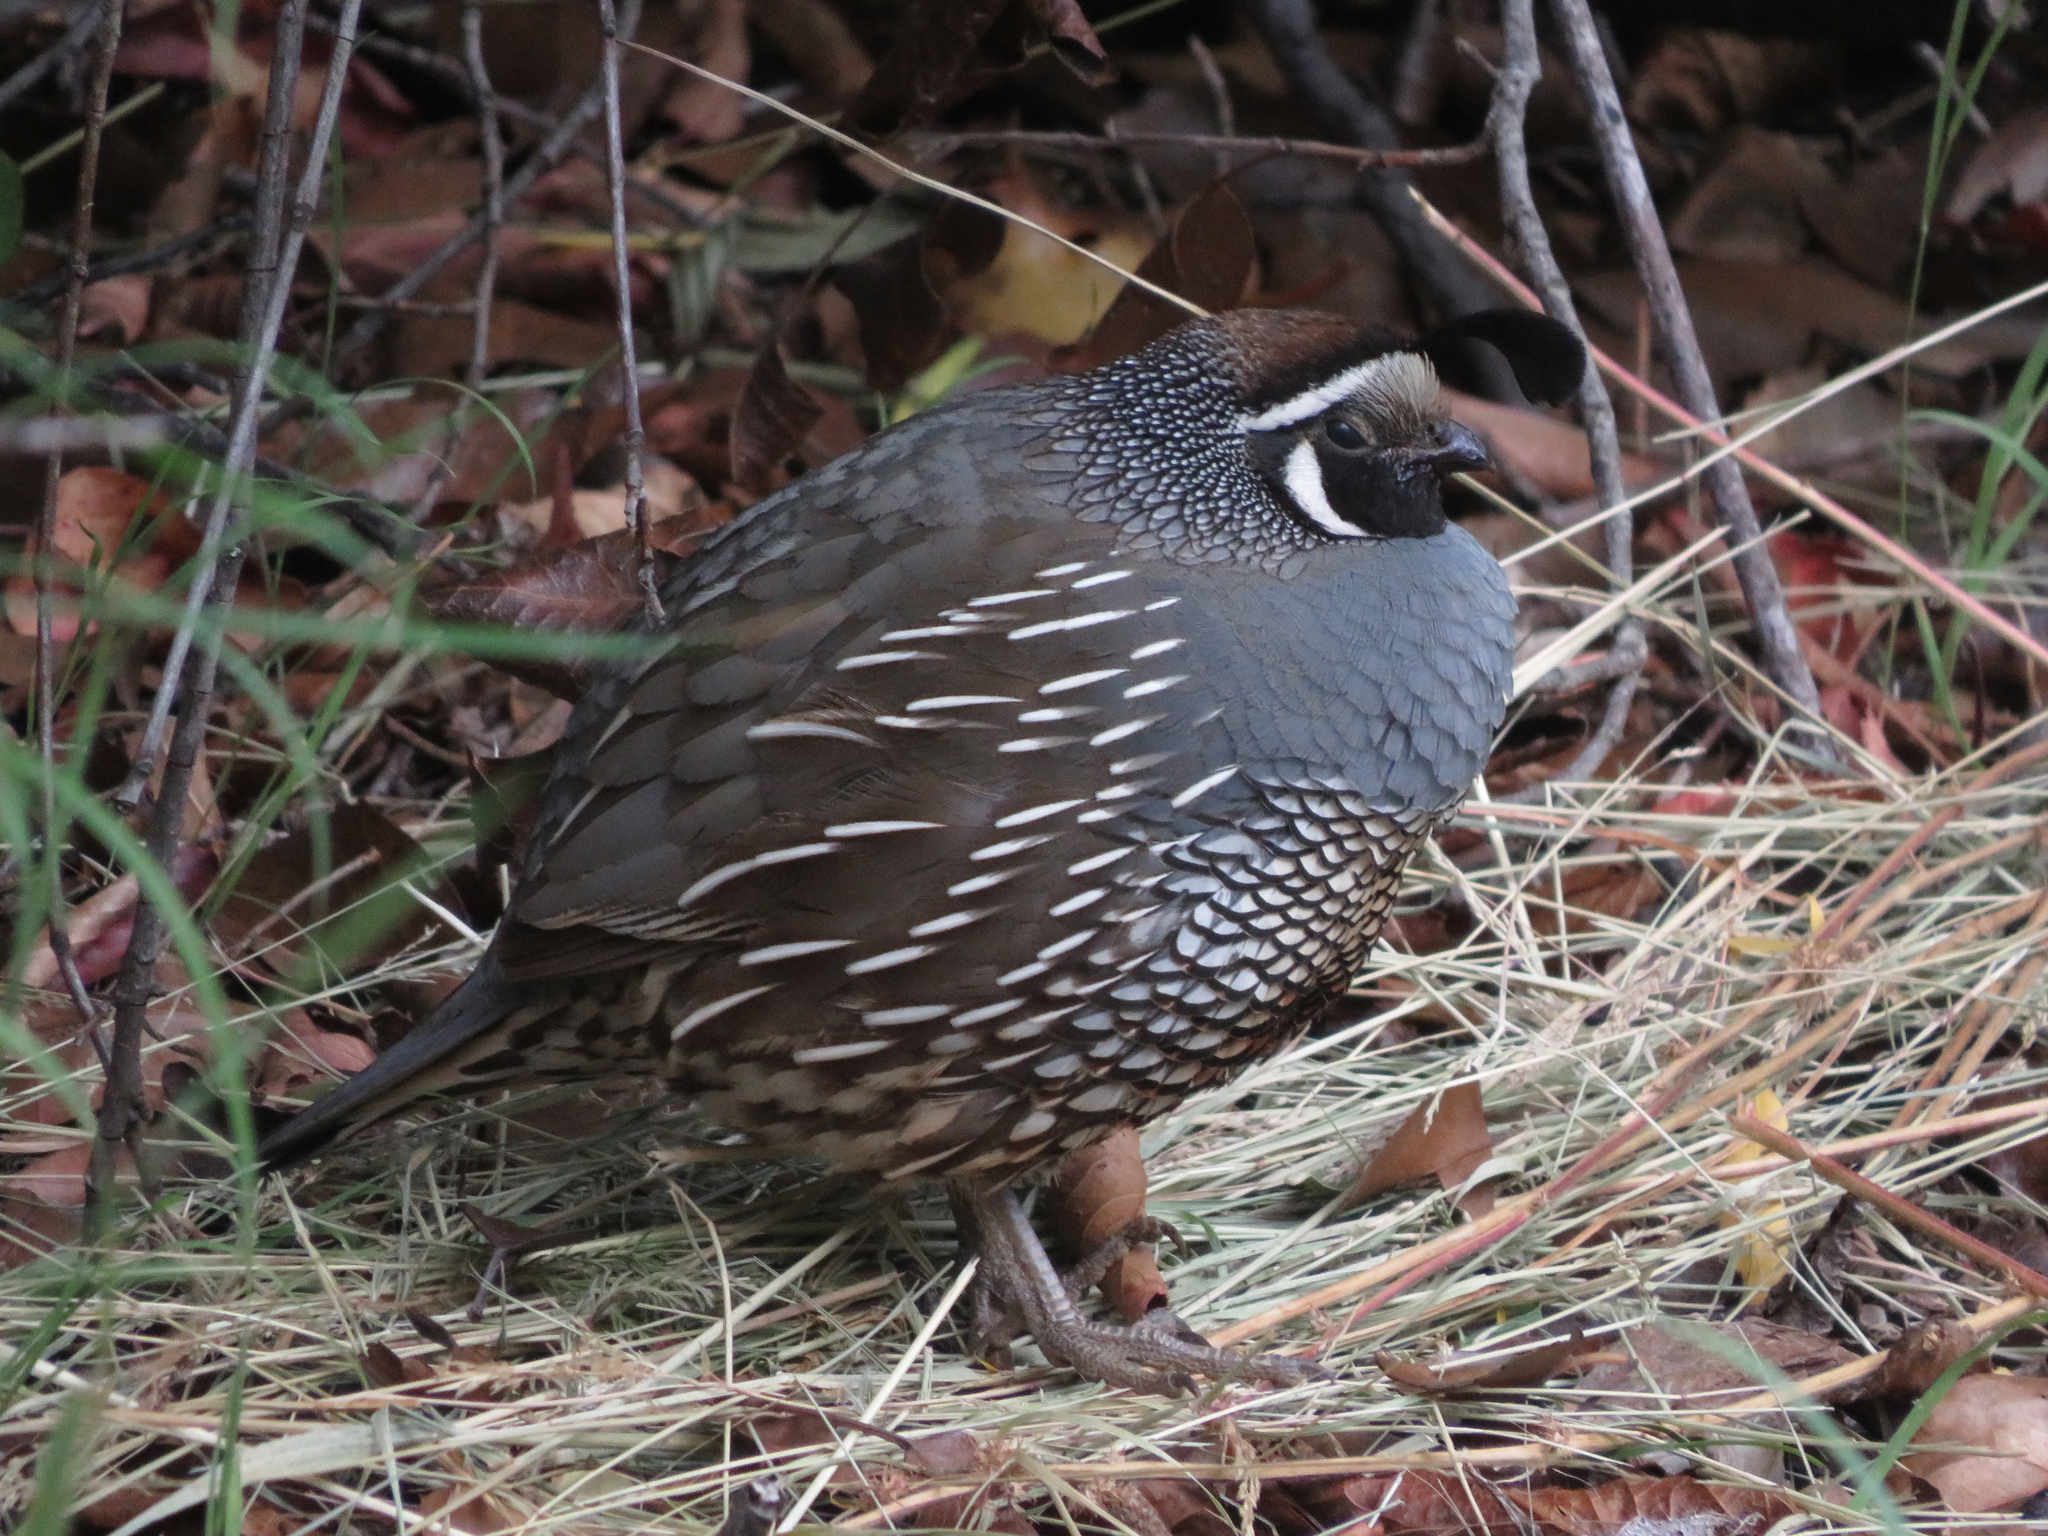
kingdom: Animalia
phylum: Chordata
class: Aves
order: Galliformes
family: Odontophoridae
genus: Callipepla
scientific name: Callipepla californica
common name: California quail
